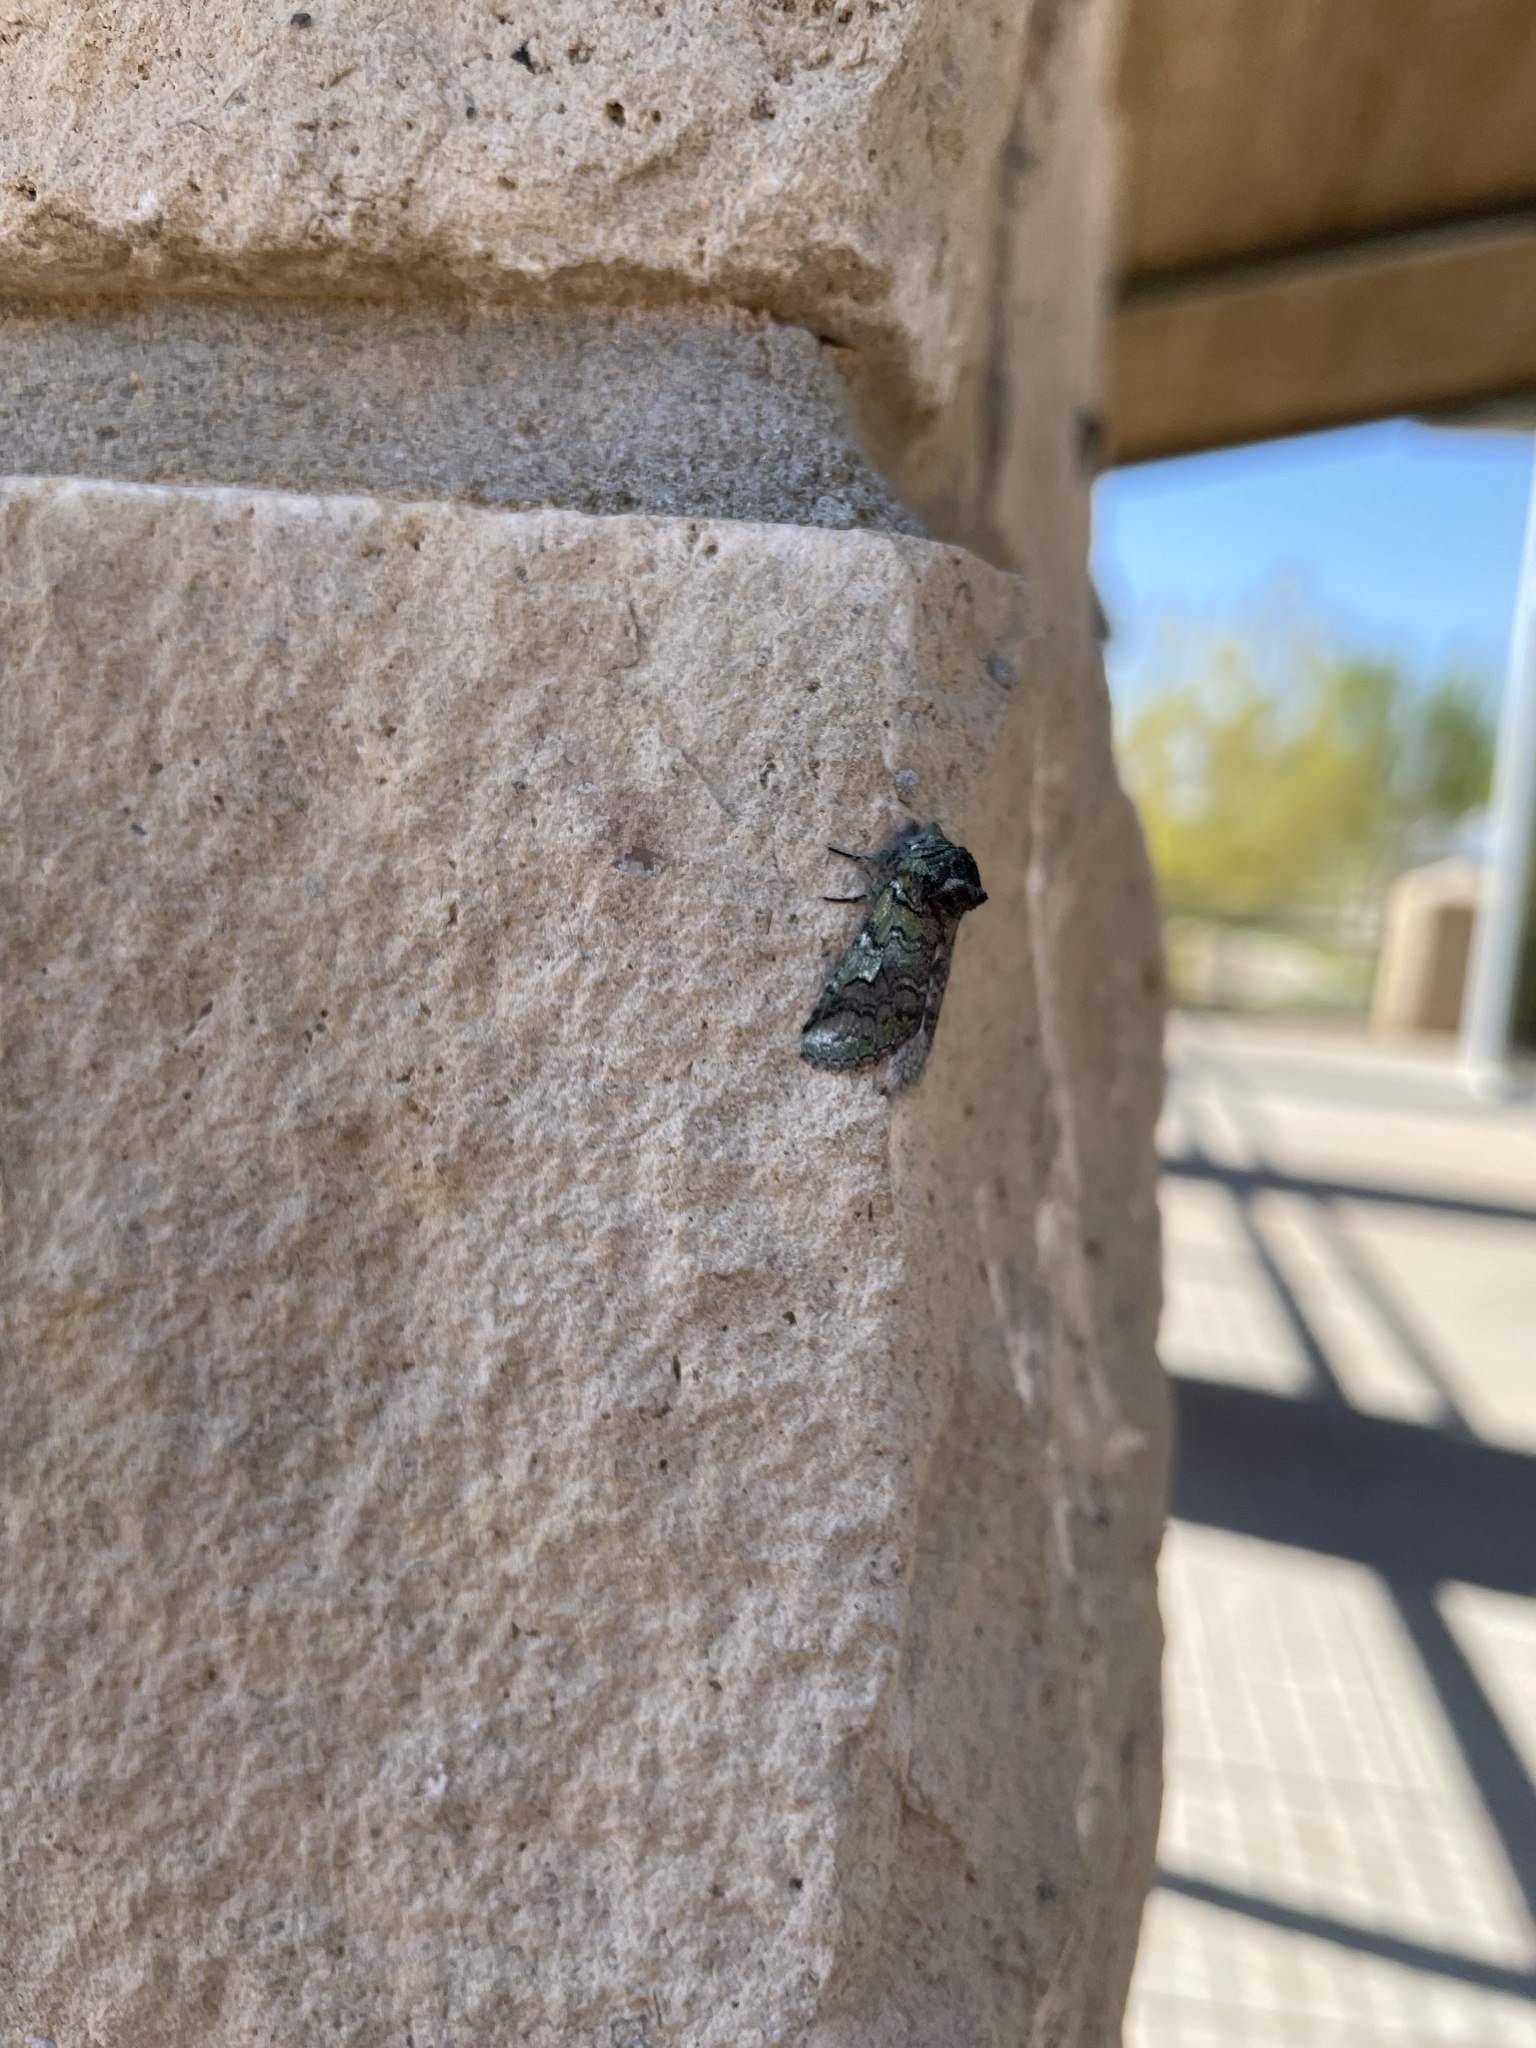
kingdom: Animalia
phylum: Arthropoda
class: Insecta
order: Lepidoptera
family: Notodontidae
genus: Litodonta
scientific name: Litodonta hydromeli
